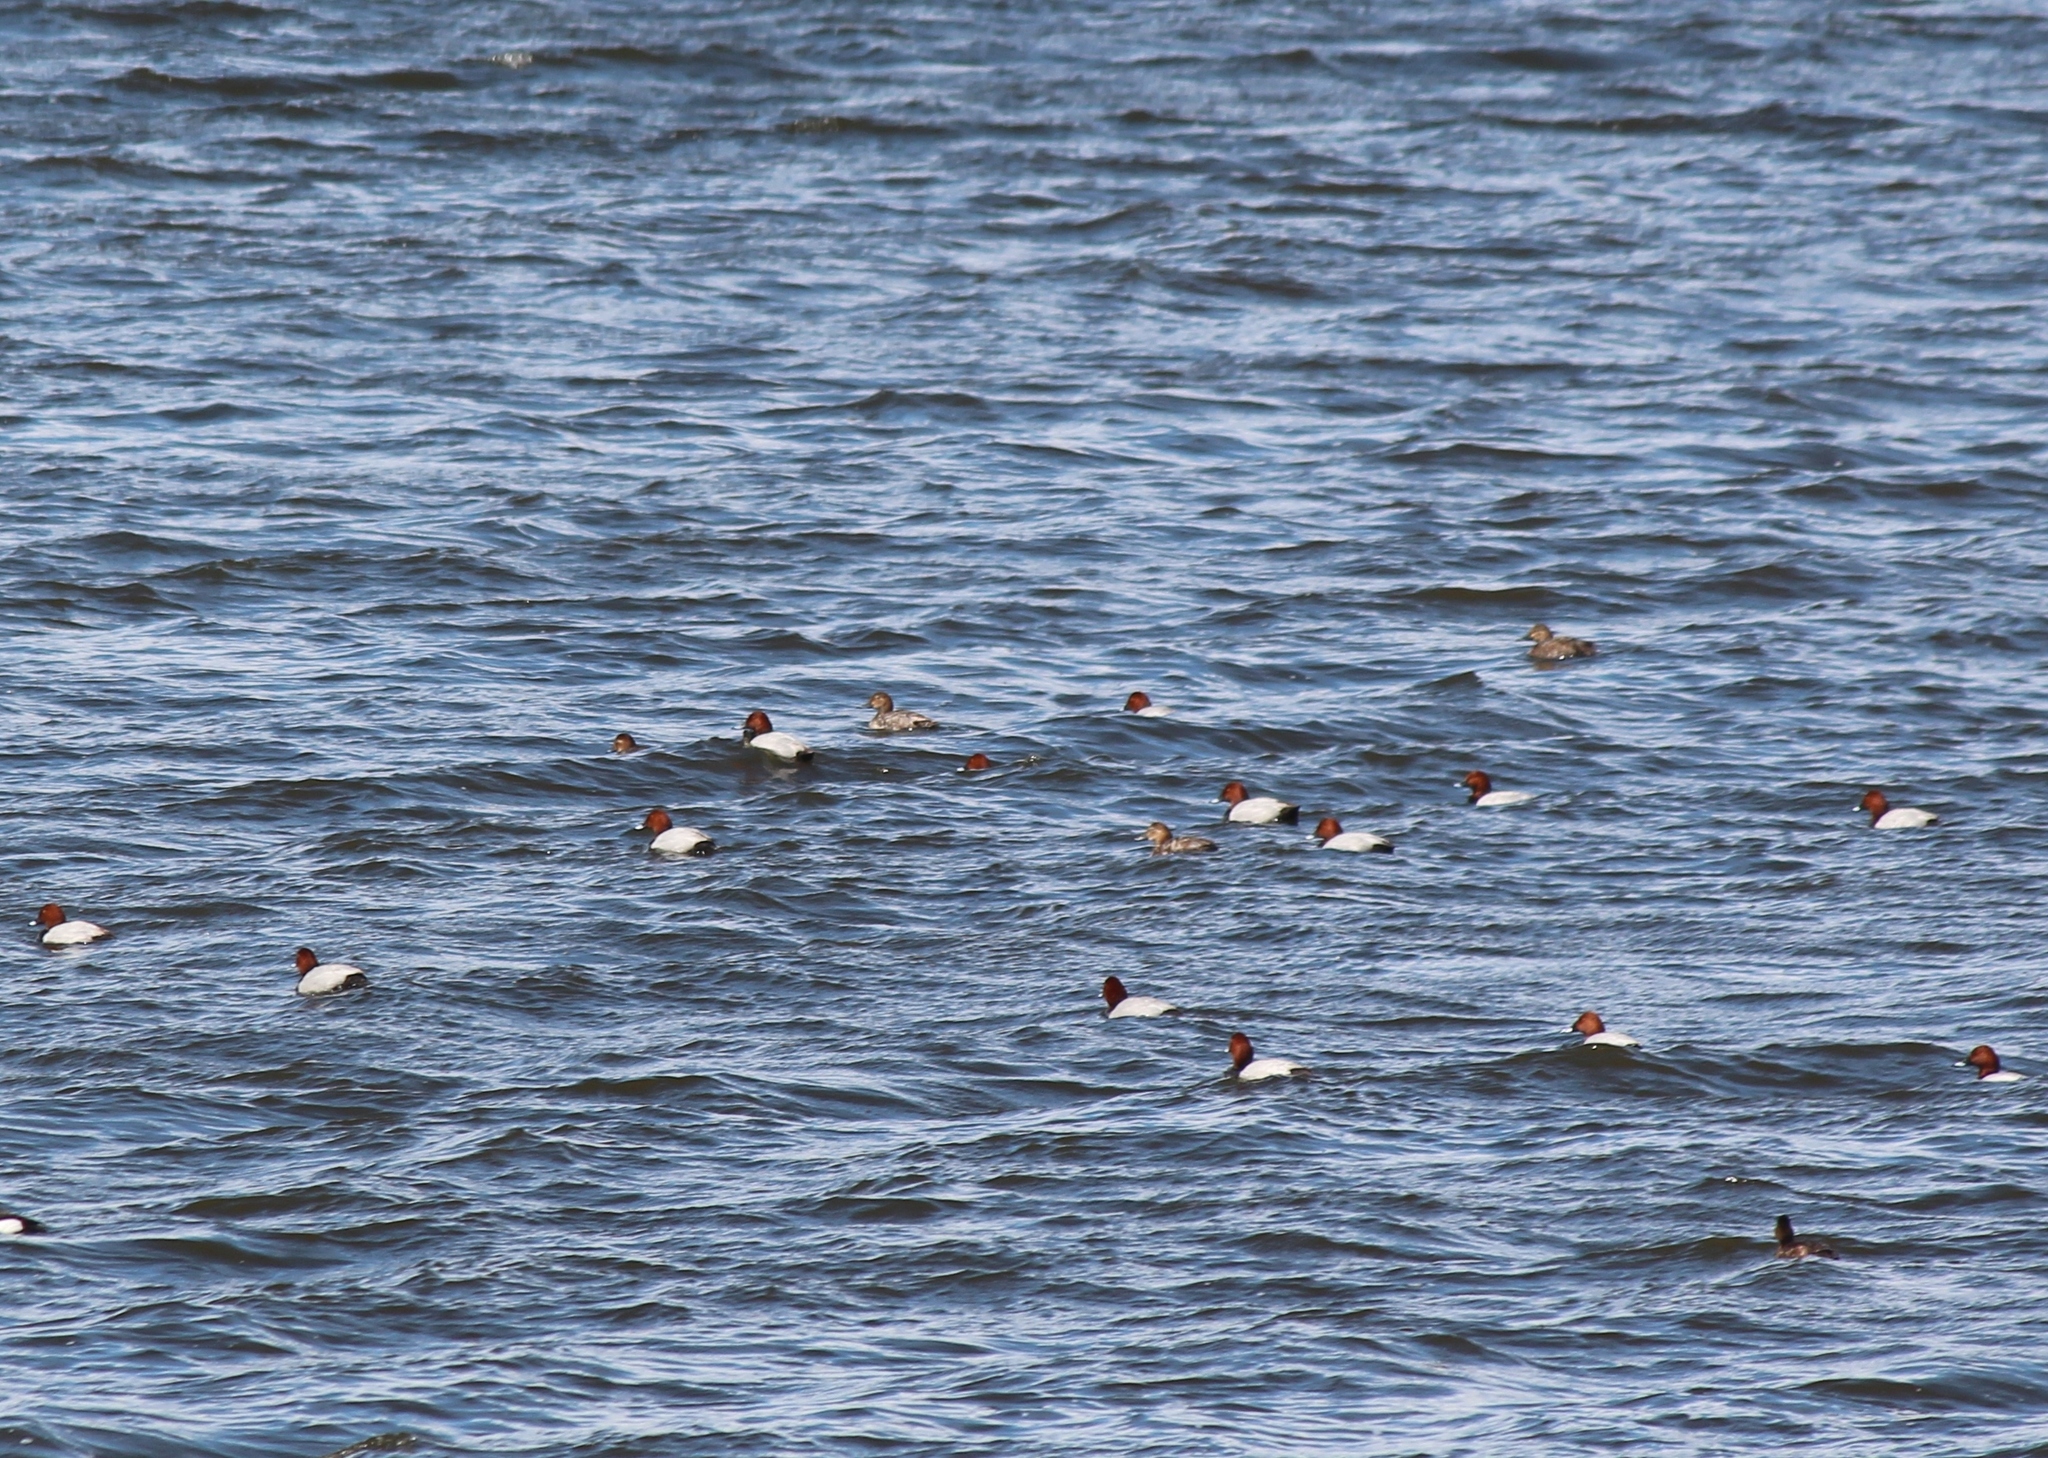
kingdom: Animalia
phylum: Chordata
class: Aves
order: Anseriformes
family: Anatidae
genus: Aythya
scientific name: Aythya ferina
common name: Common pochard
